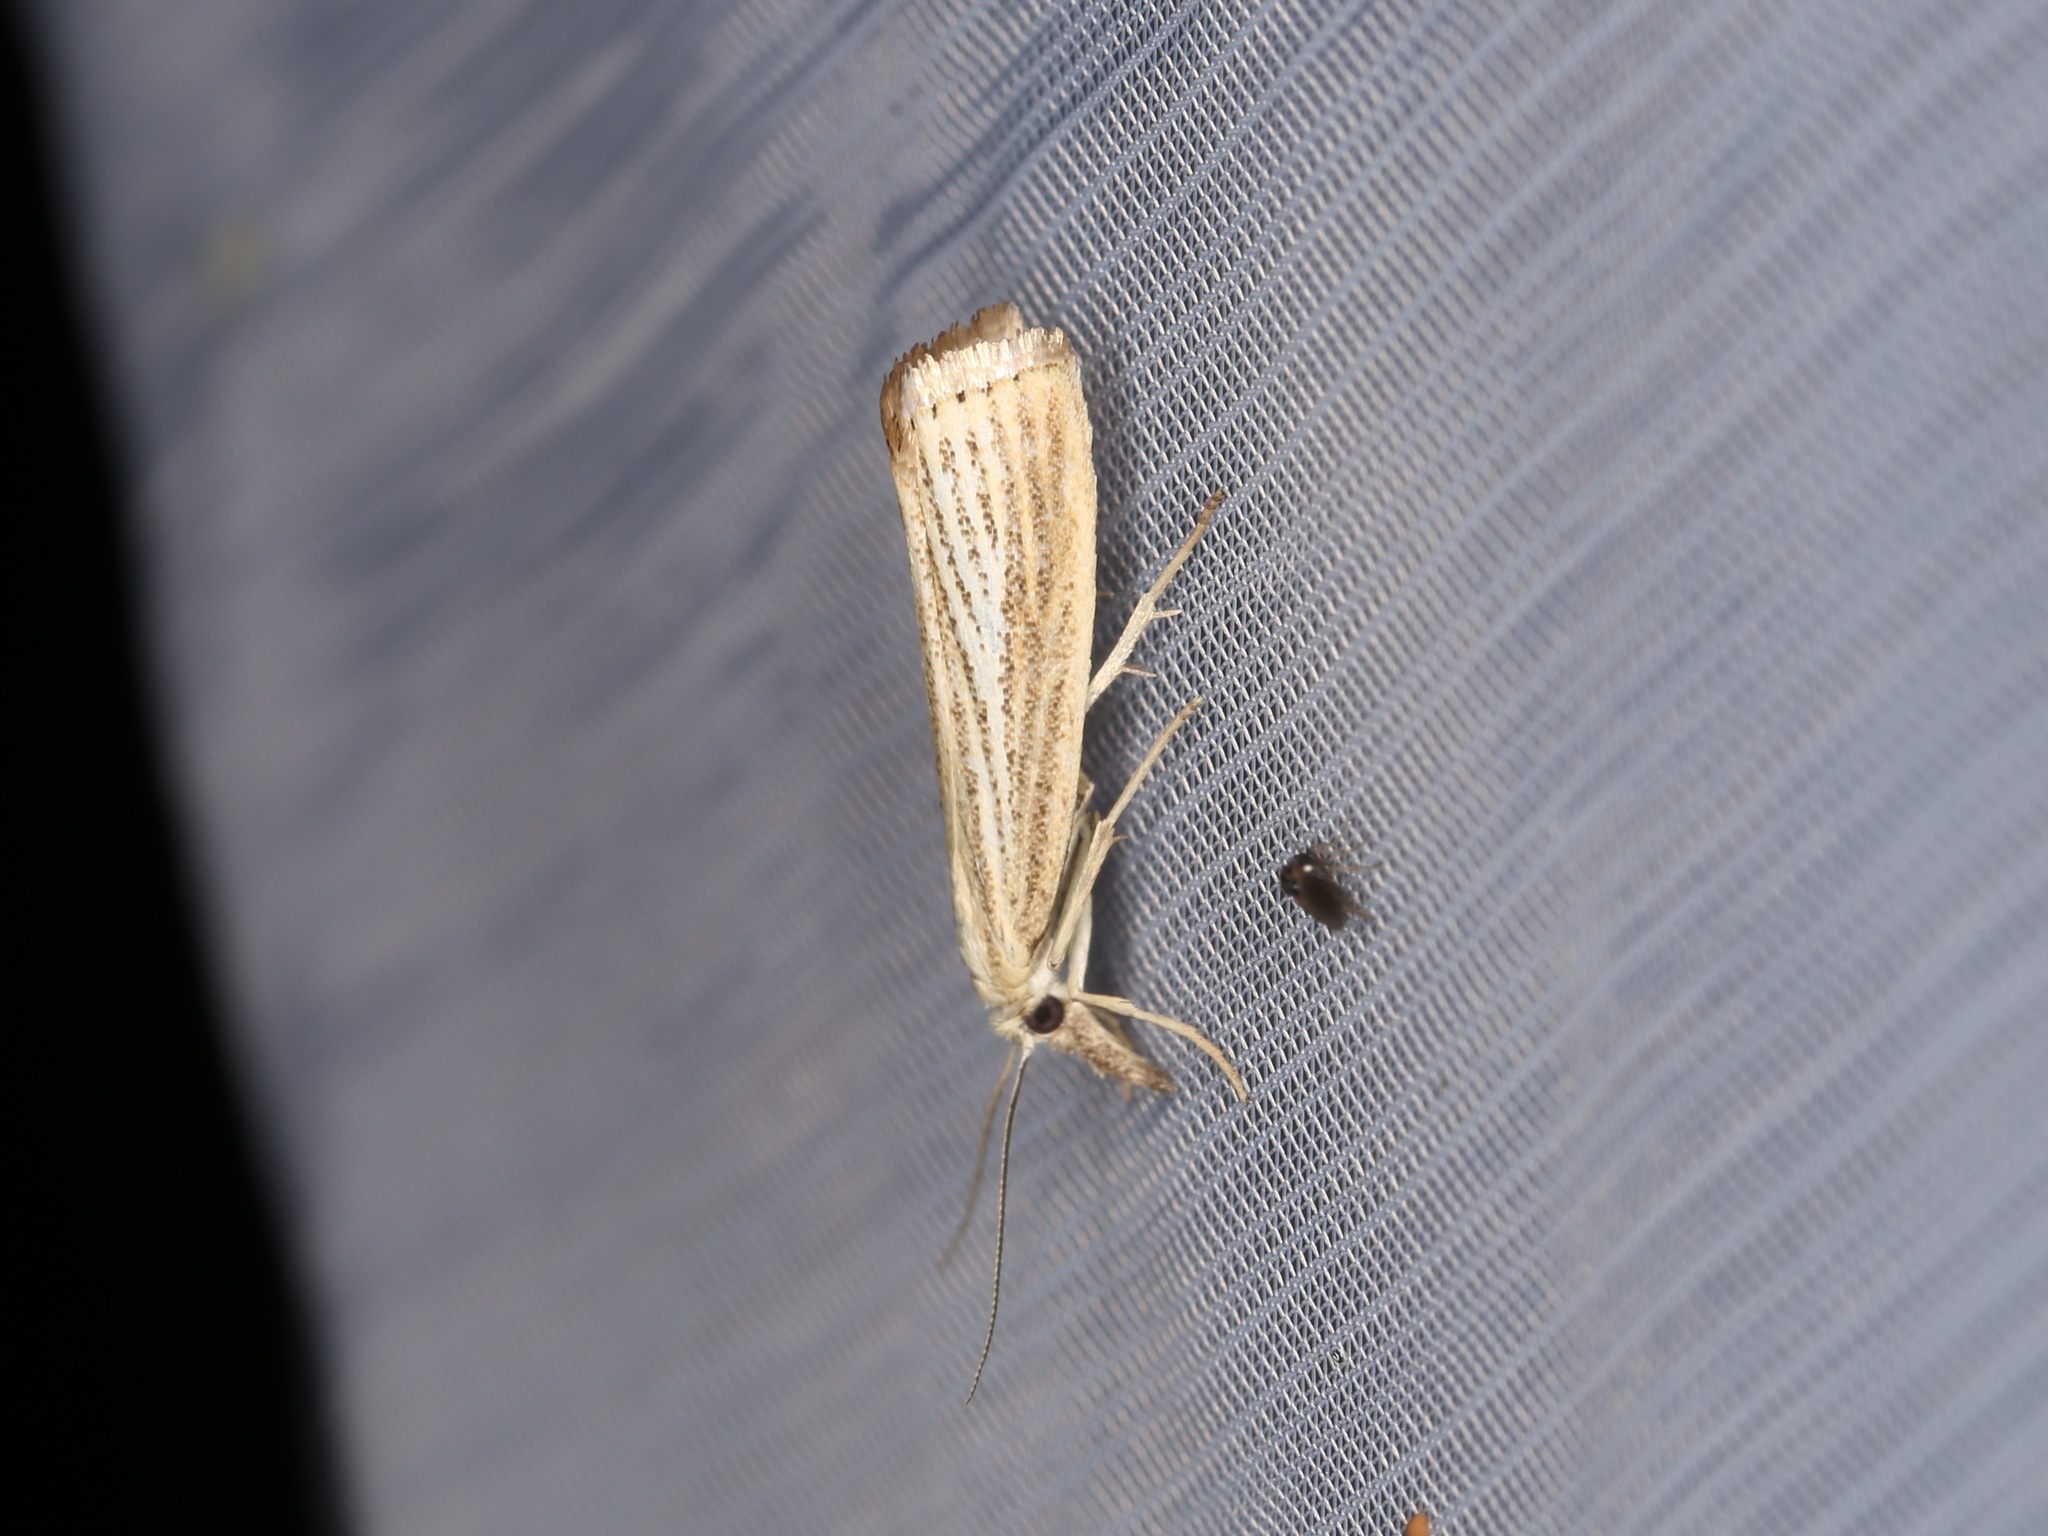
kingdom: Animalia
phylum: Arthropoda
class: Insecta
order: Lepidoptera
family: Crambidae
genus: Agriphila
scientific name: Agriphila straminella
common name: Straw grass-veneer
